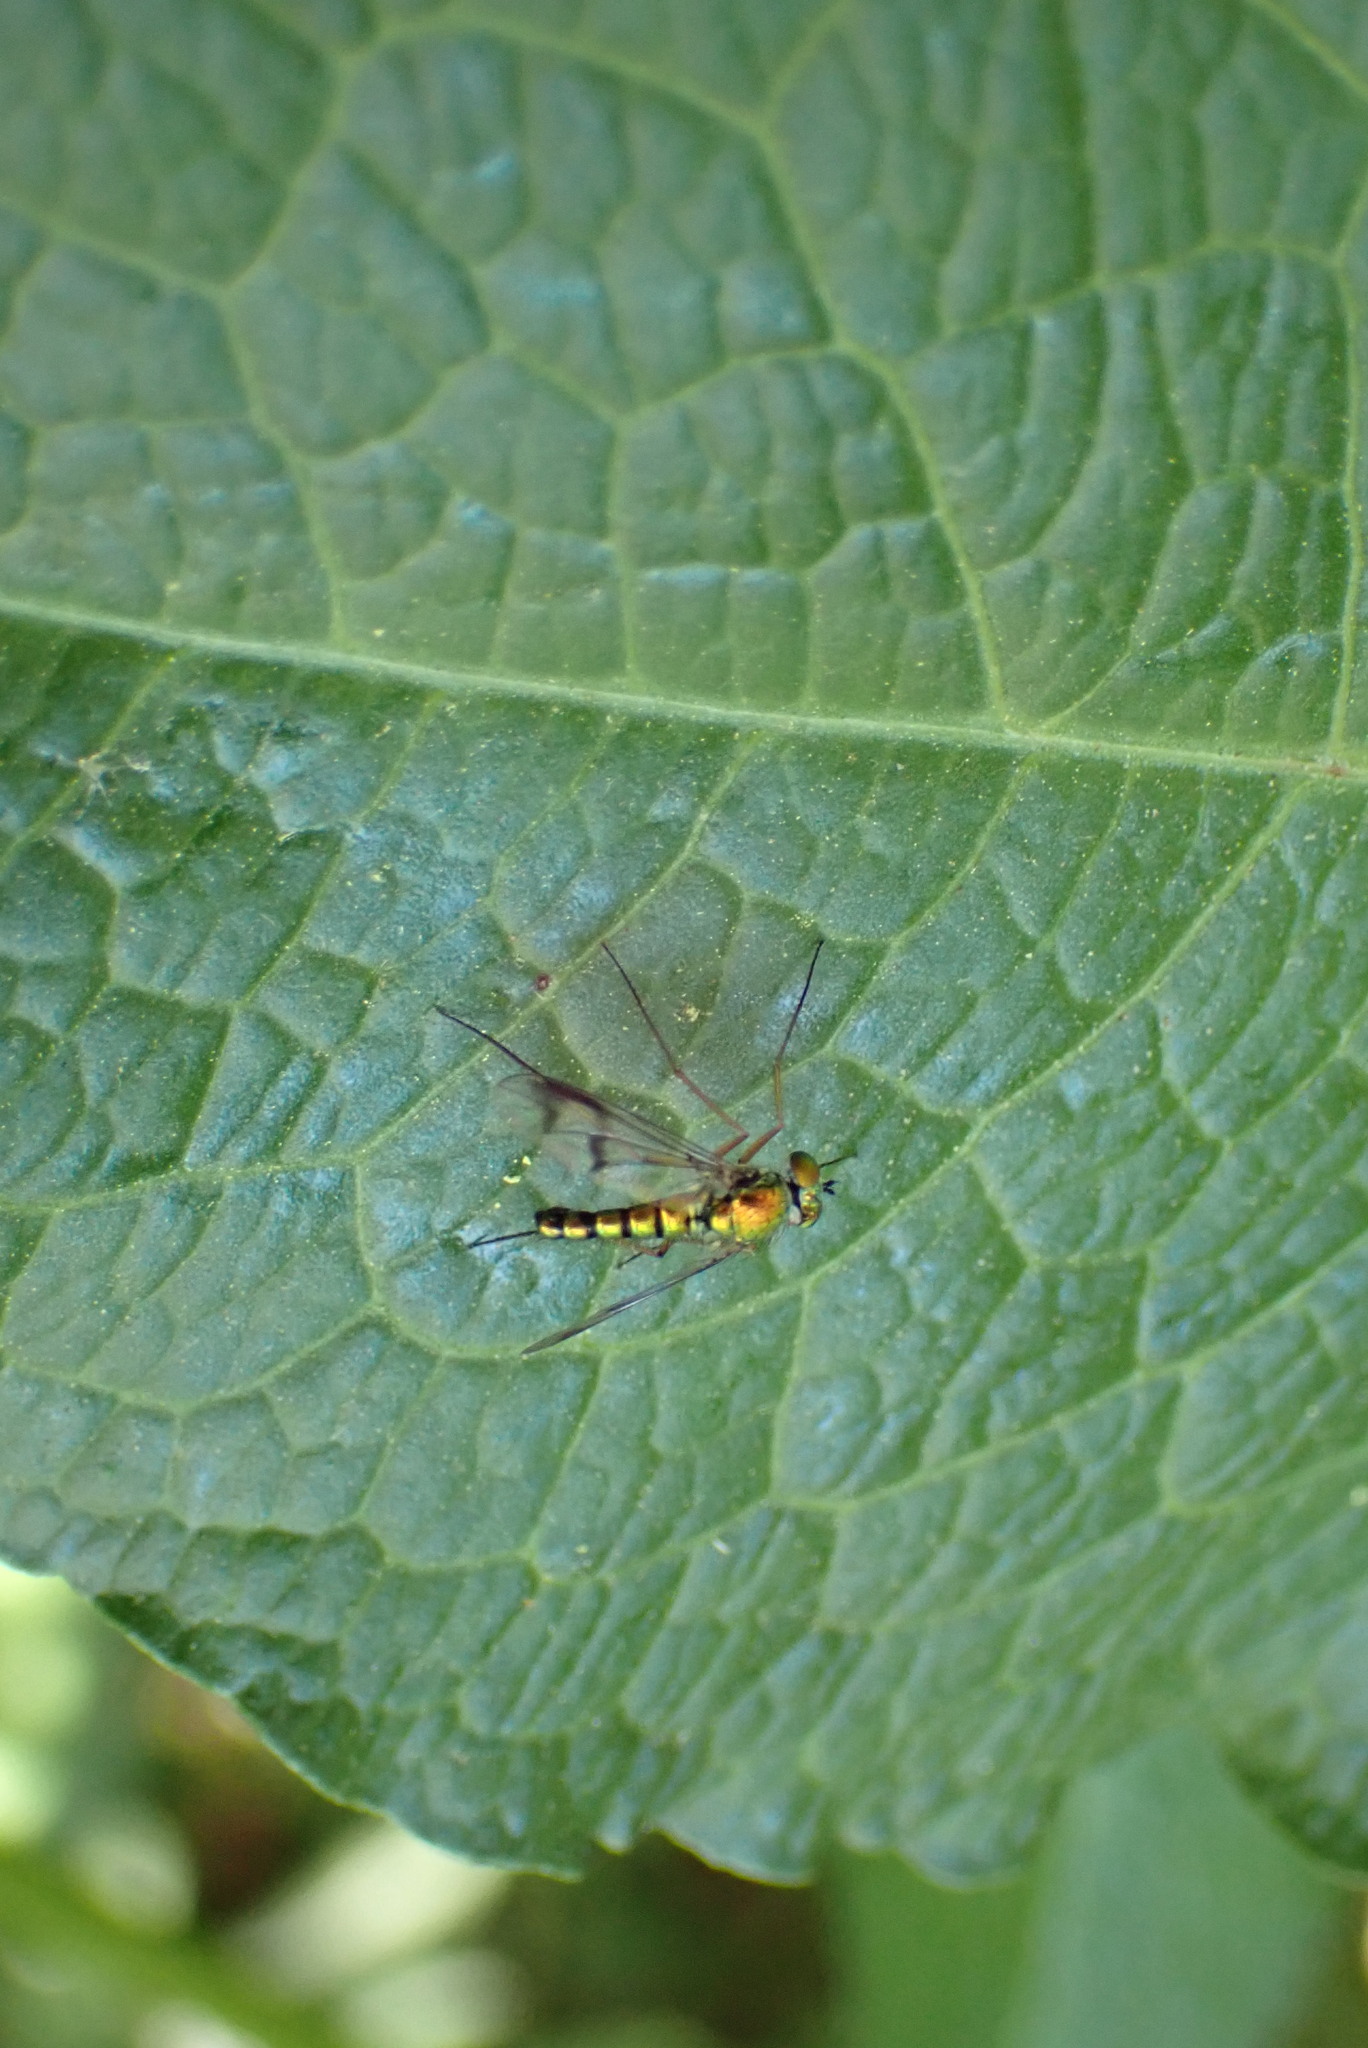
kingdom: Animalia
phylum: Arthropoda
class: Insecta
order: Diptera
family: Dolichopodidae
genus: Condylostylus
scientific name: Condylostylus
